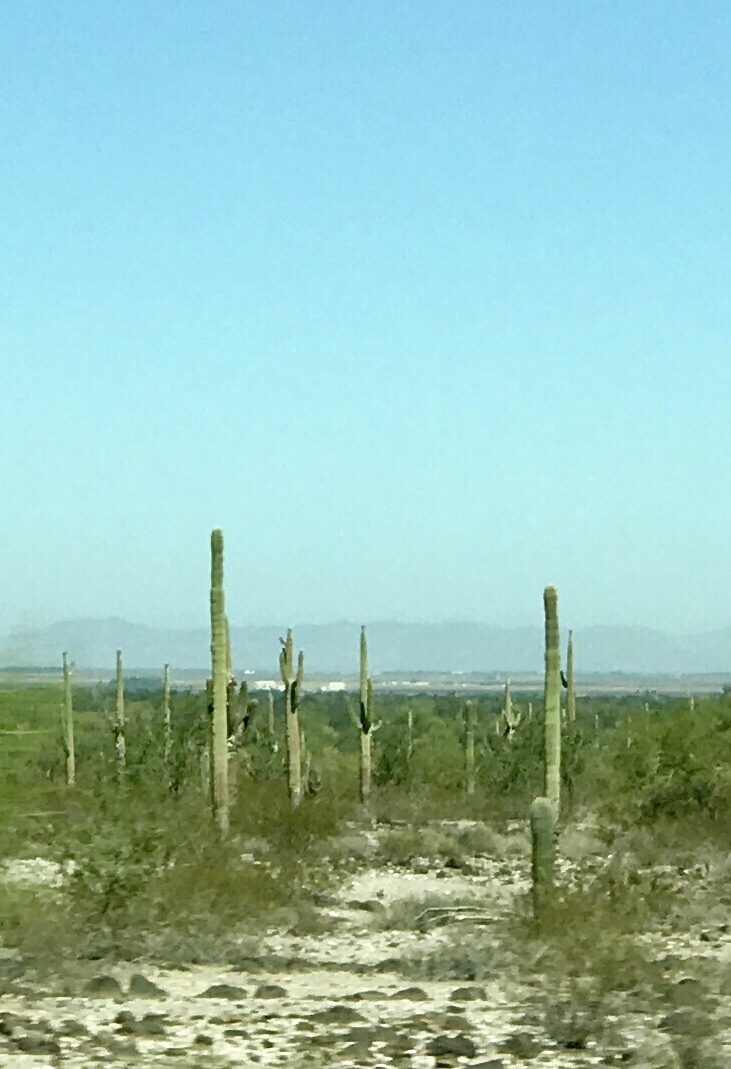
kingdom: Plantae
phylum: Tracheophyta
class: Magnoliopsida
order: Caryophyllales
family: Cactaceae
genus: Carnegiea
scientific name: Carnegiea gigantea
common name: Saguaro
